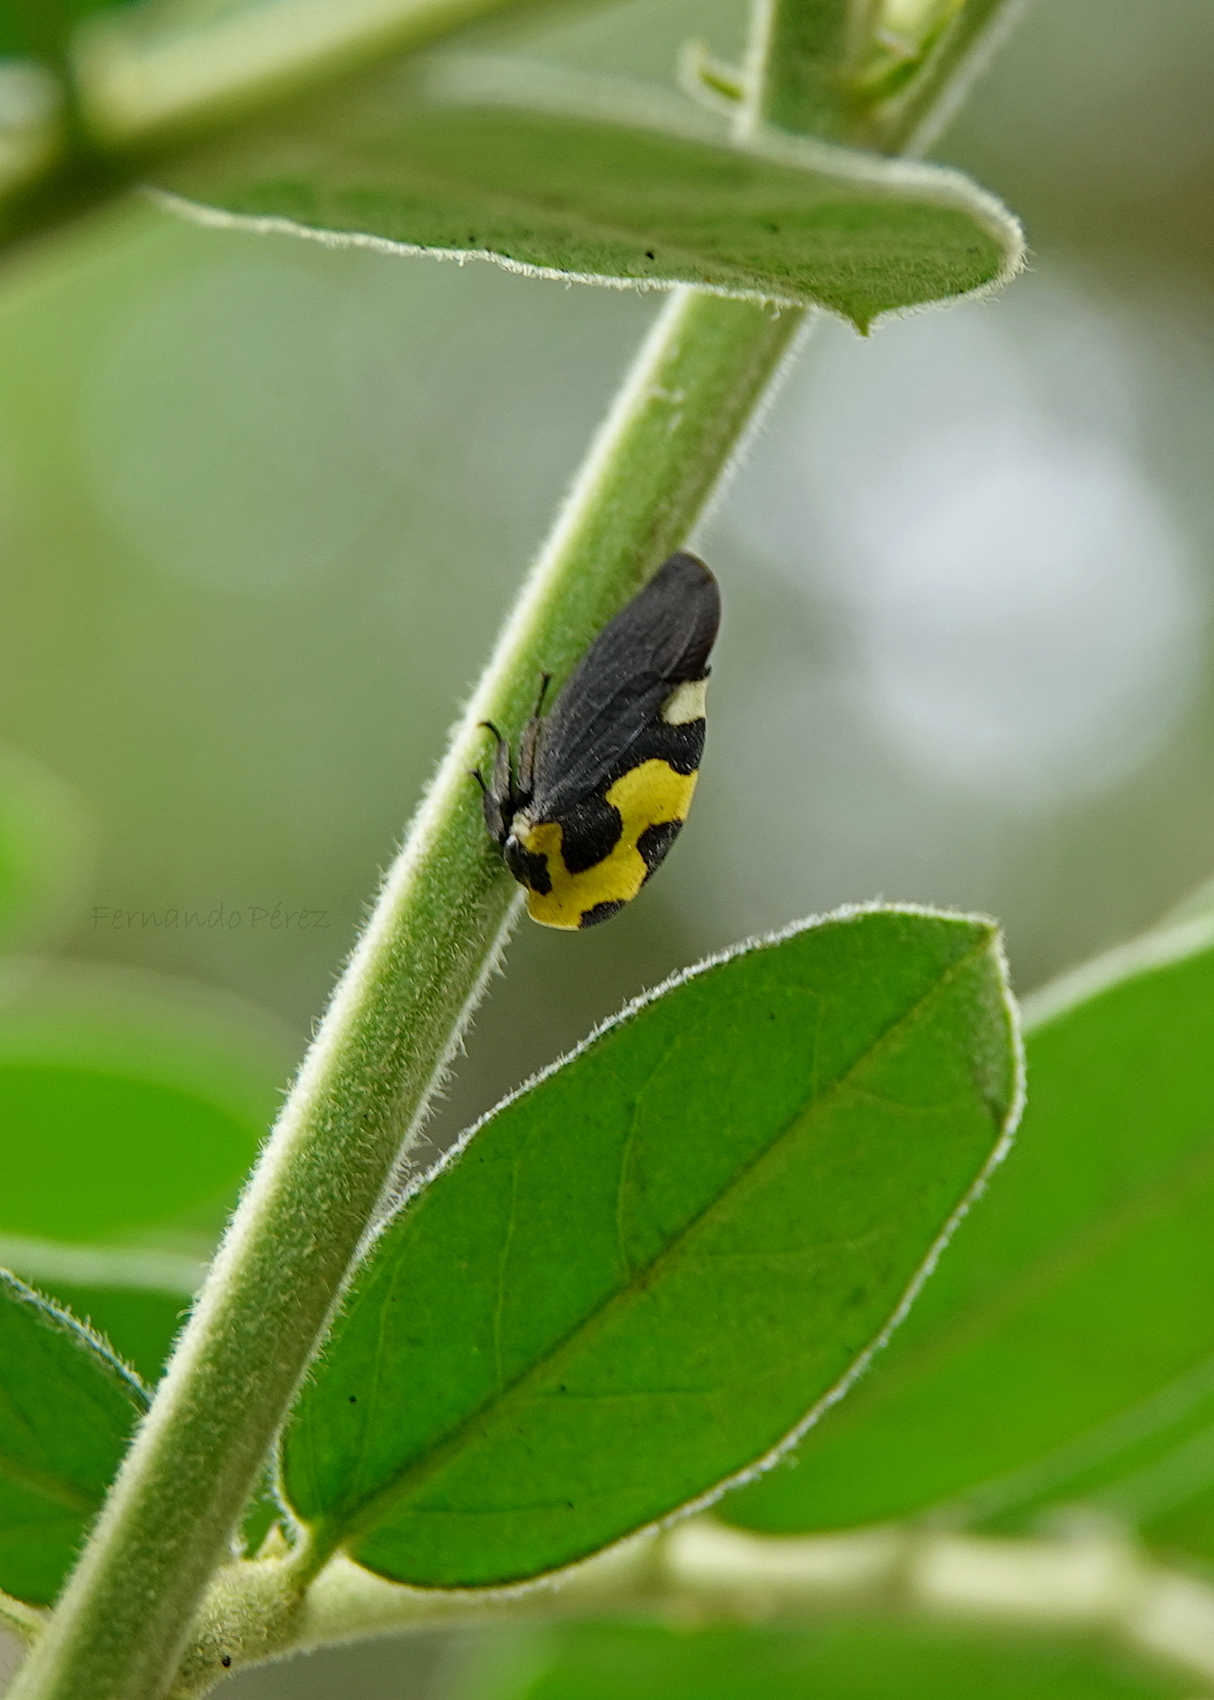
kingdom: Animalia
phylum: Arthropoda
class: Insecta
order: Hemiptera
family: Membracidae
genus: Membracis
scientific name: Membracis mexicana
